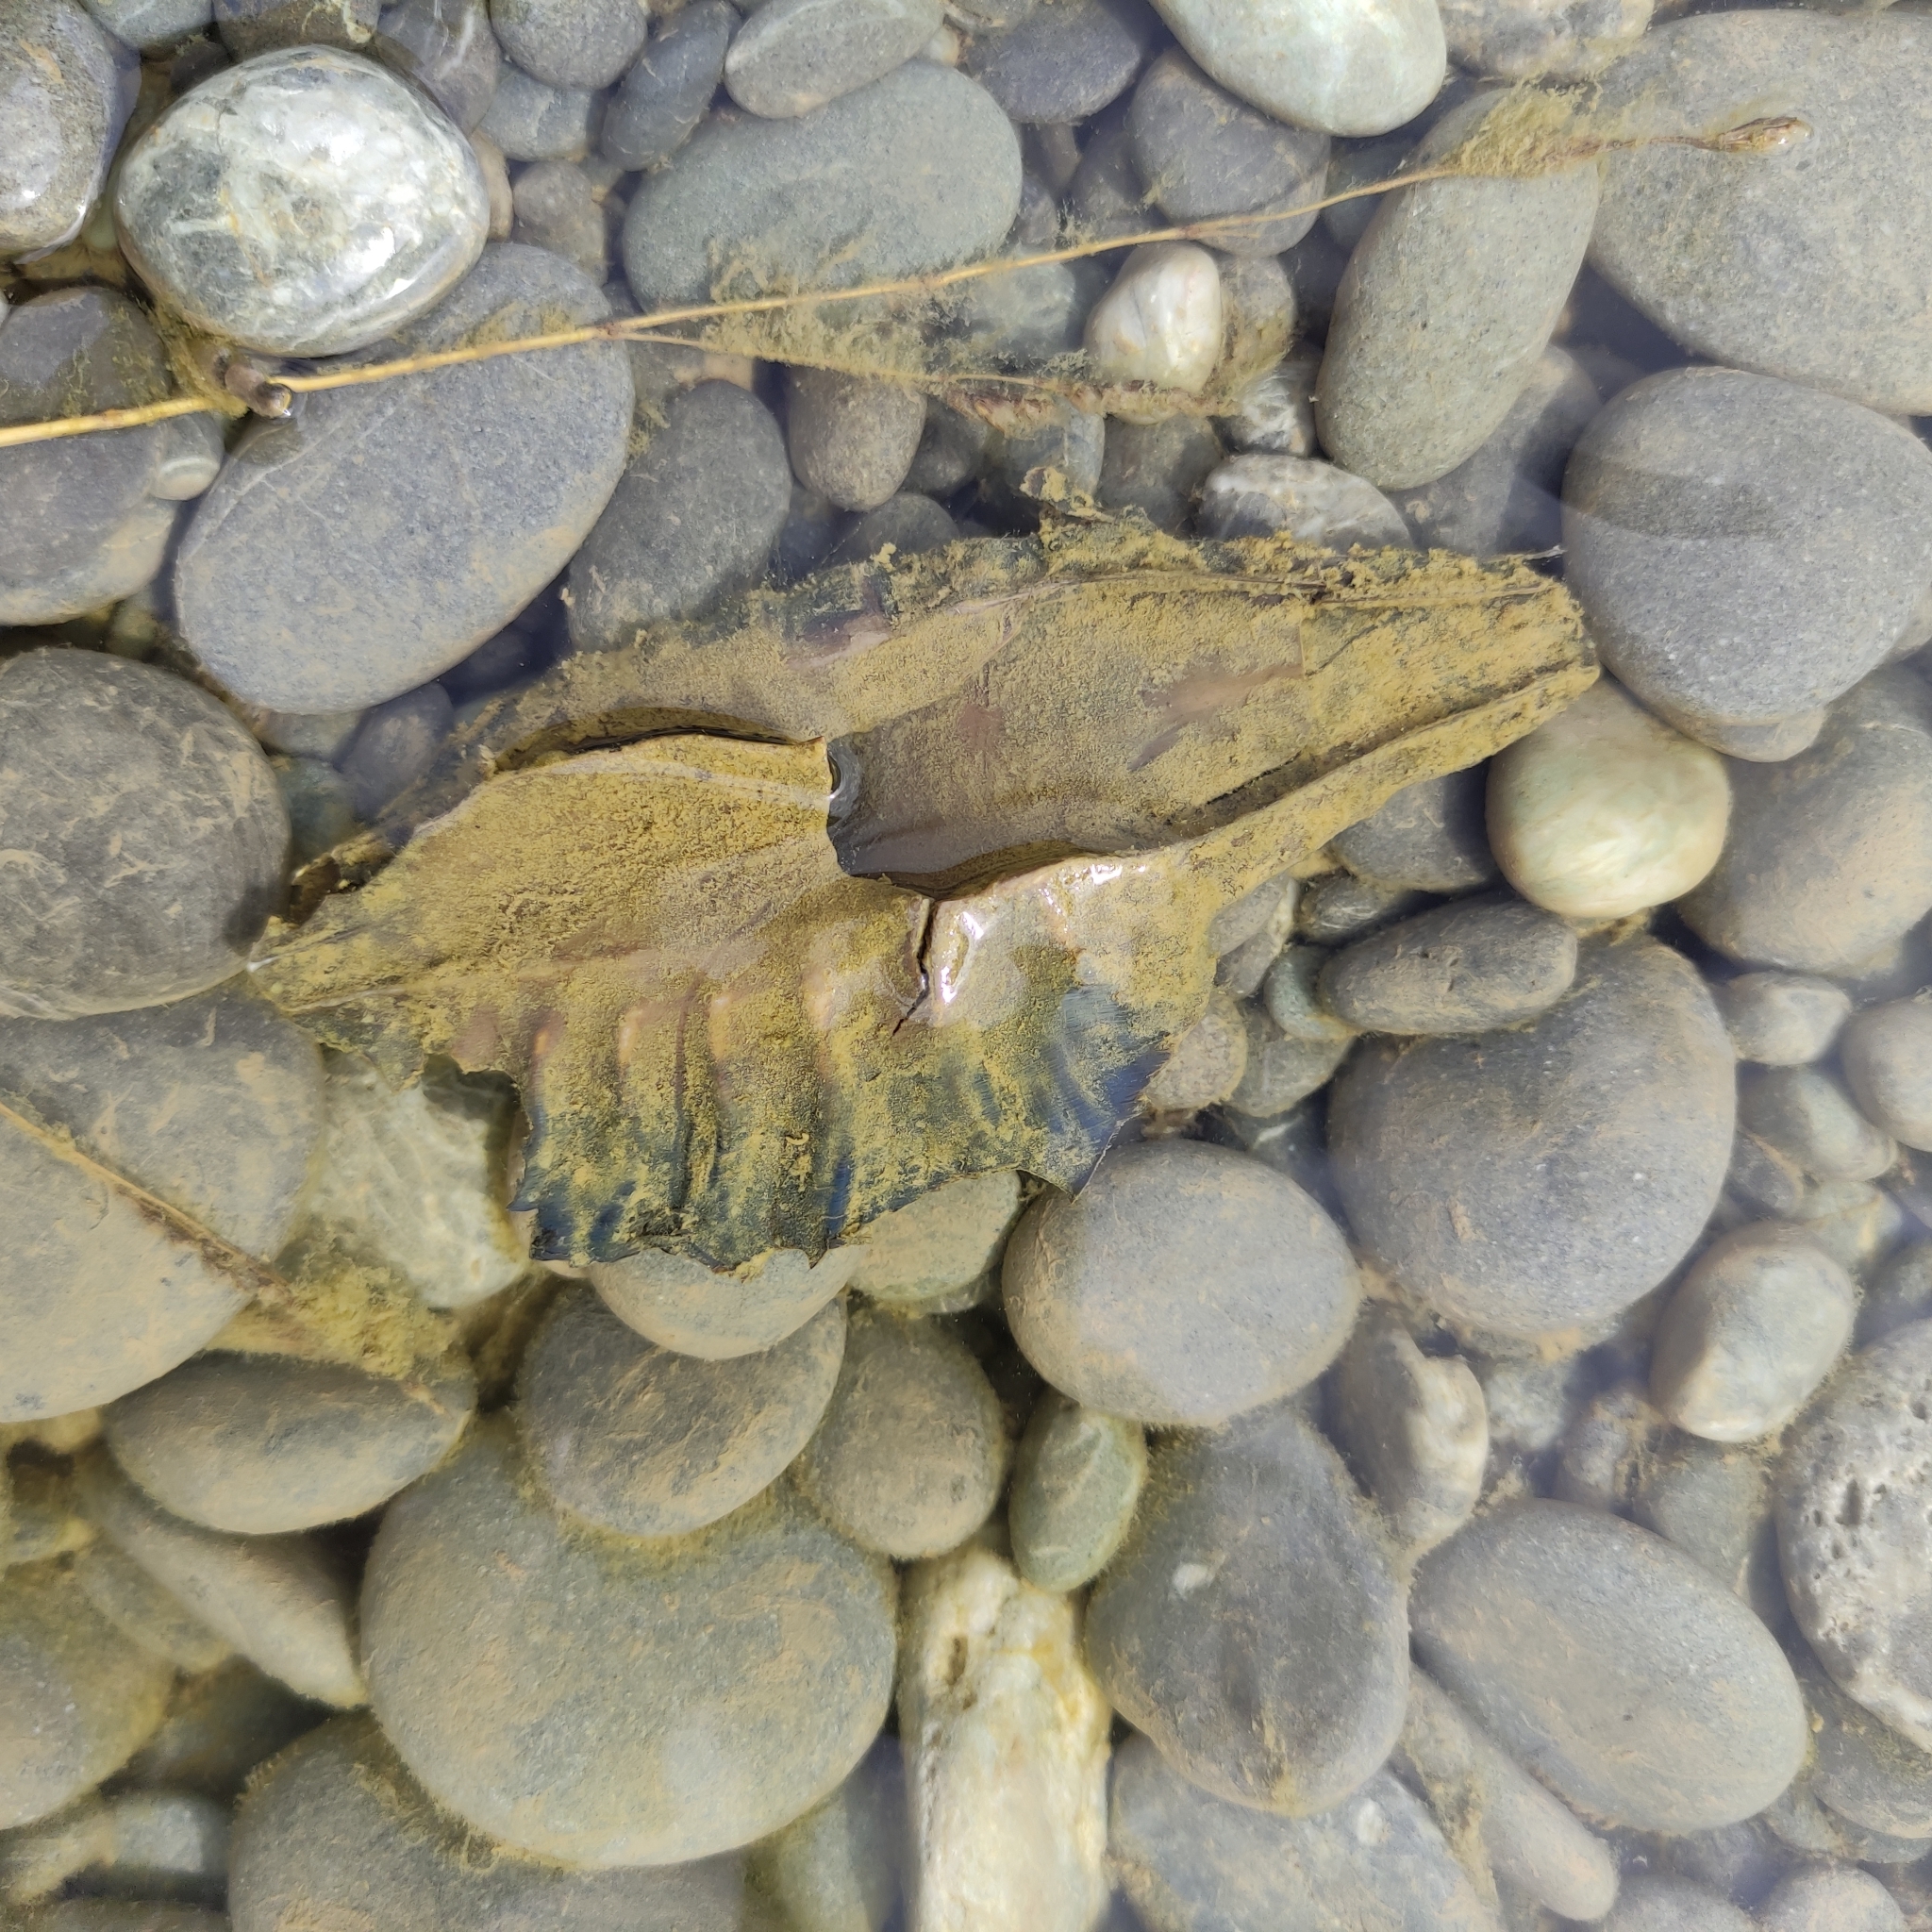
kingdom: Animalia
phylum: Chordata
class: Holocephali
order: Chimaeriformes
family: Callorhinchidae
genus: Callorhinchus
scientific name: Callorhinchus milii
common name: Elephant fish
